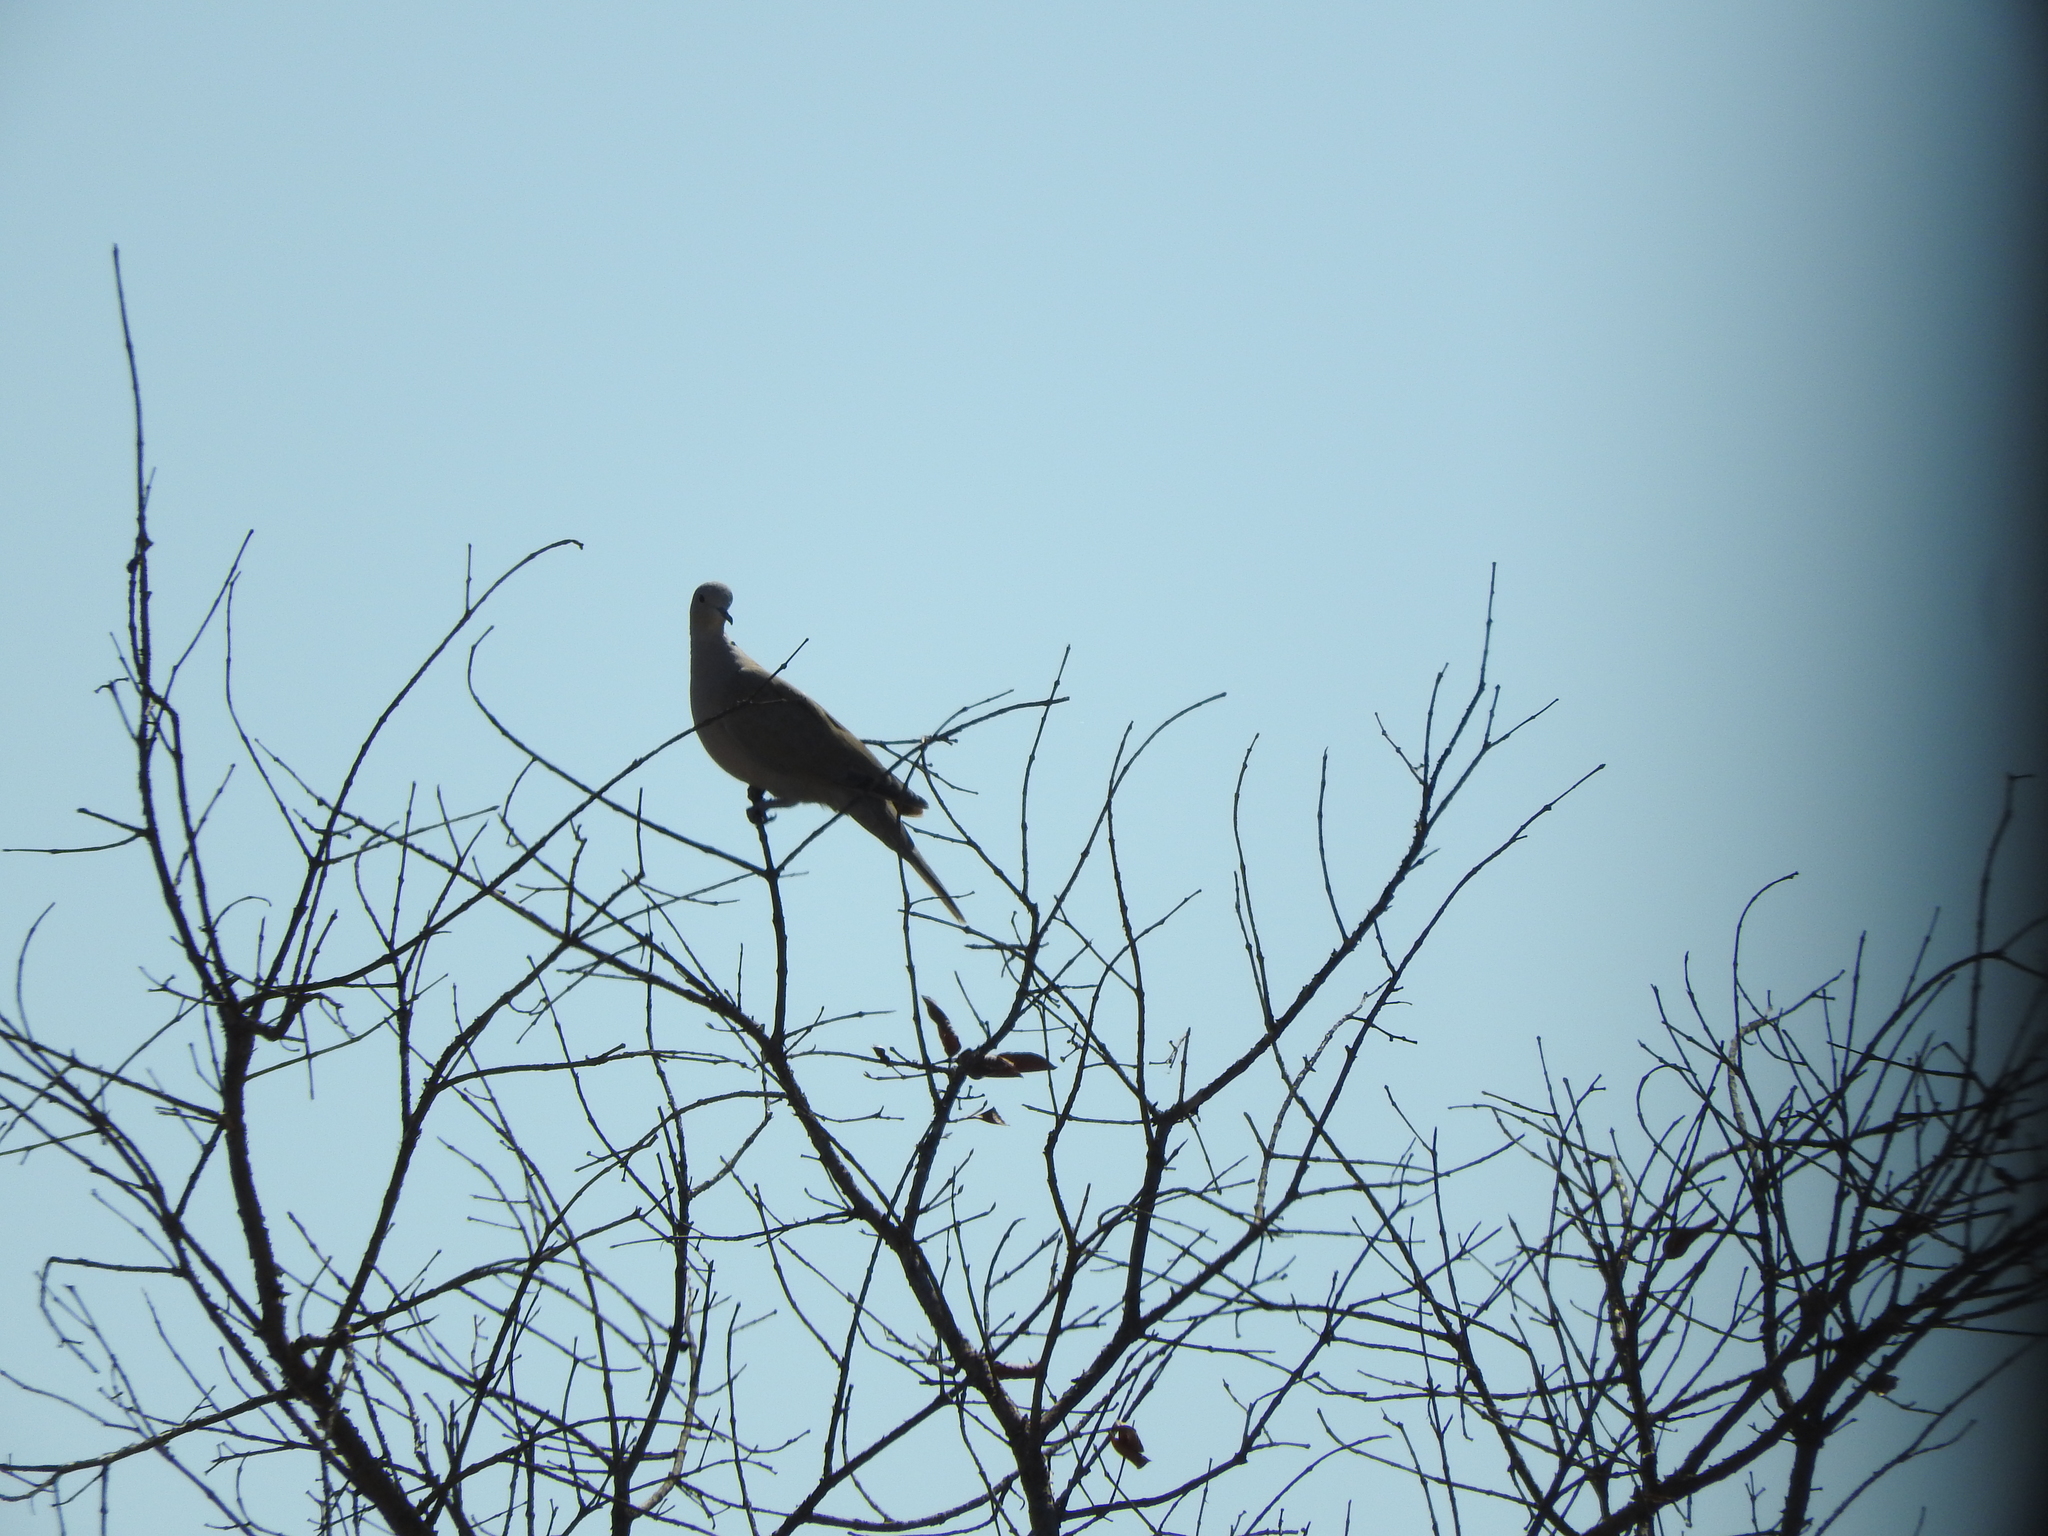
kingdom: Animalia
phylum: Chordata
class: Aves
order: Columbiformes
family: Columbidae
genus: Streptopelia
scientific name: Streptopelia decaocto
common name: Eurasian collared dove
